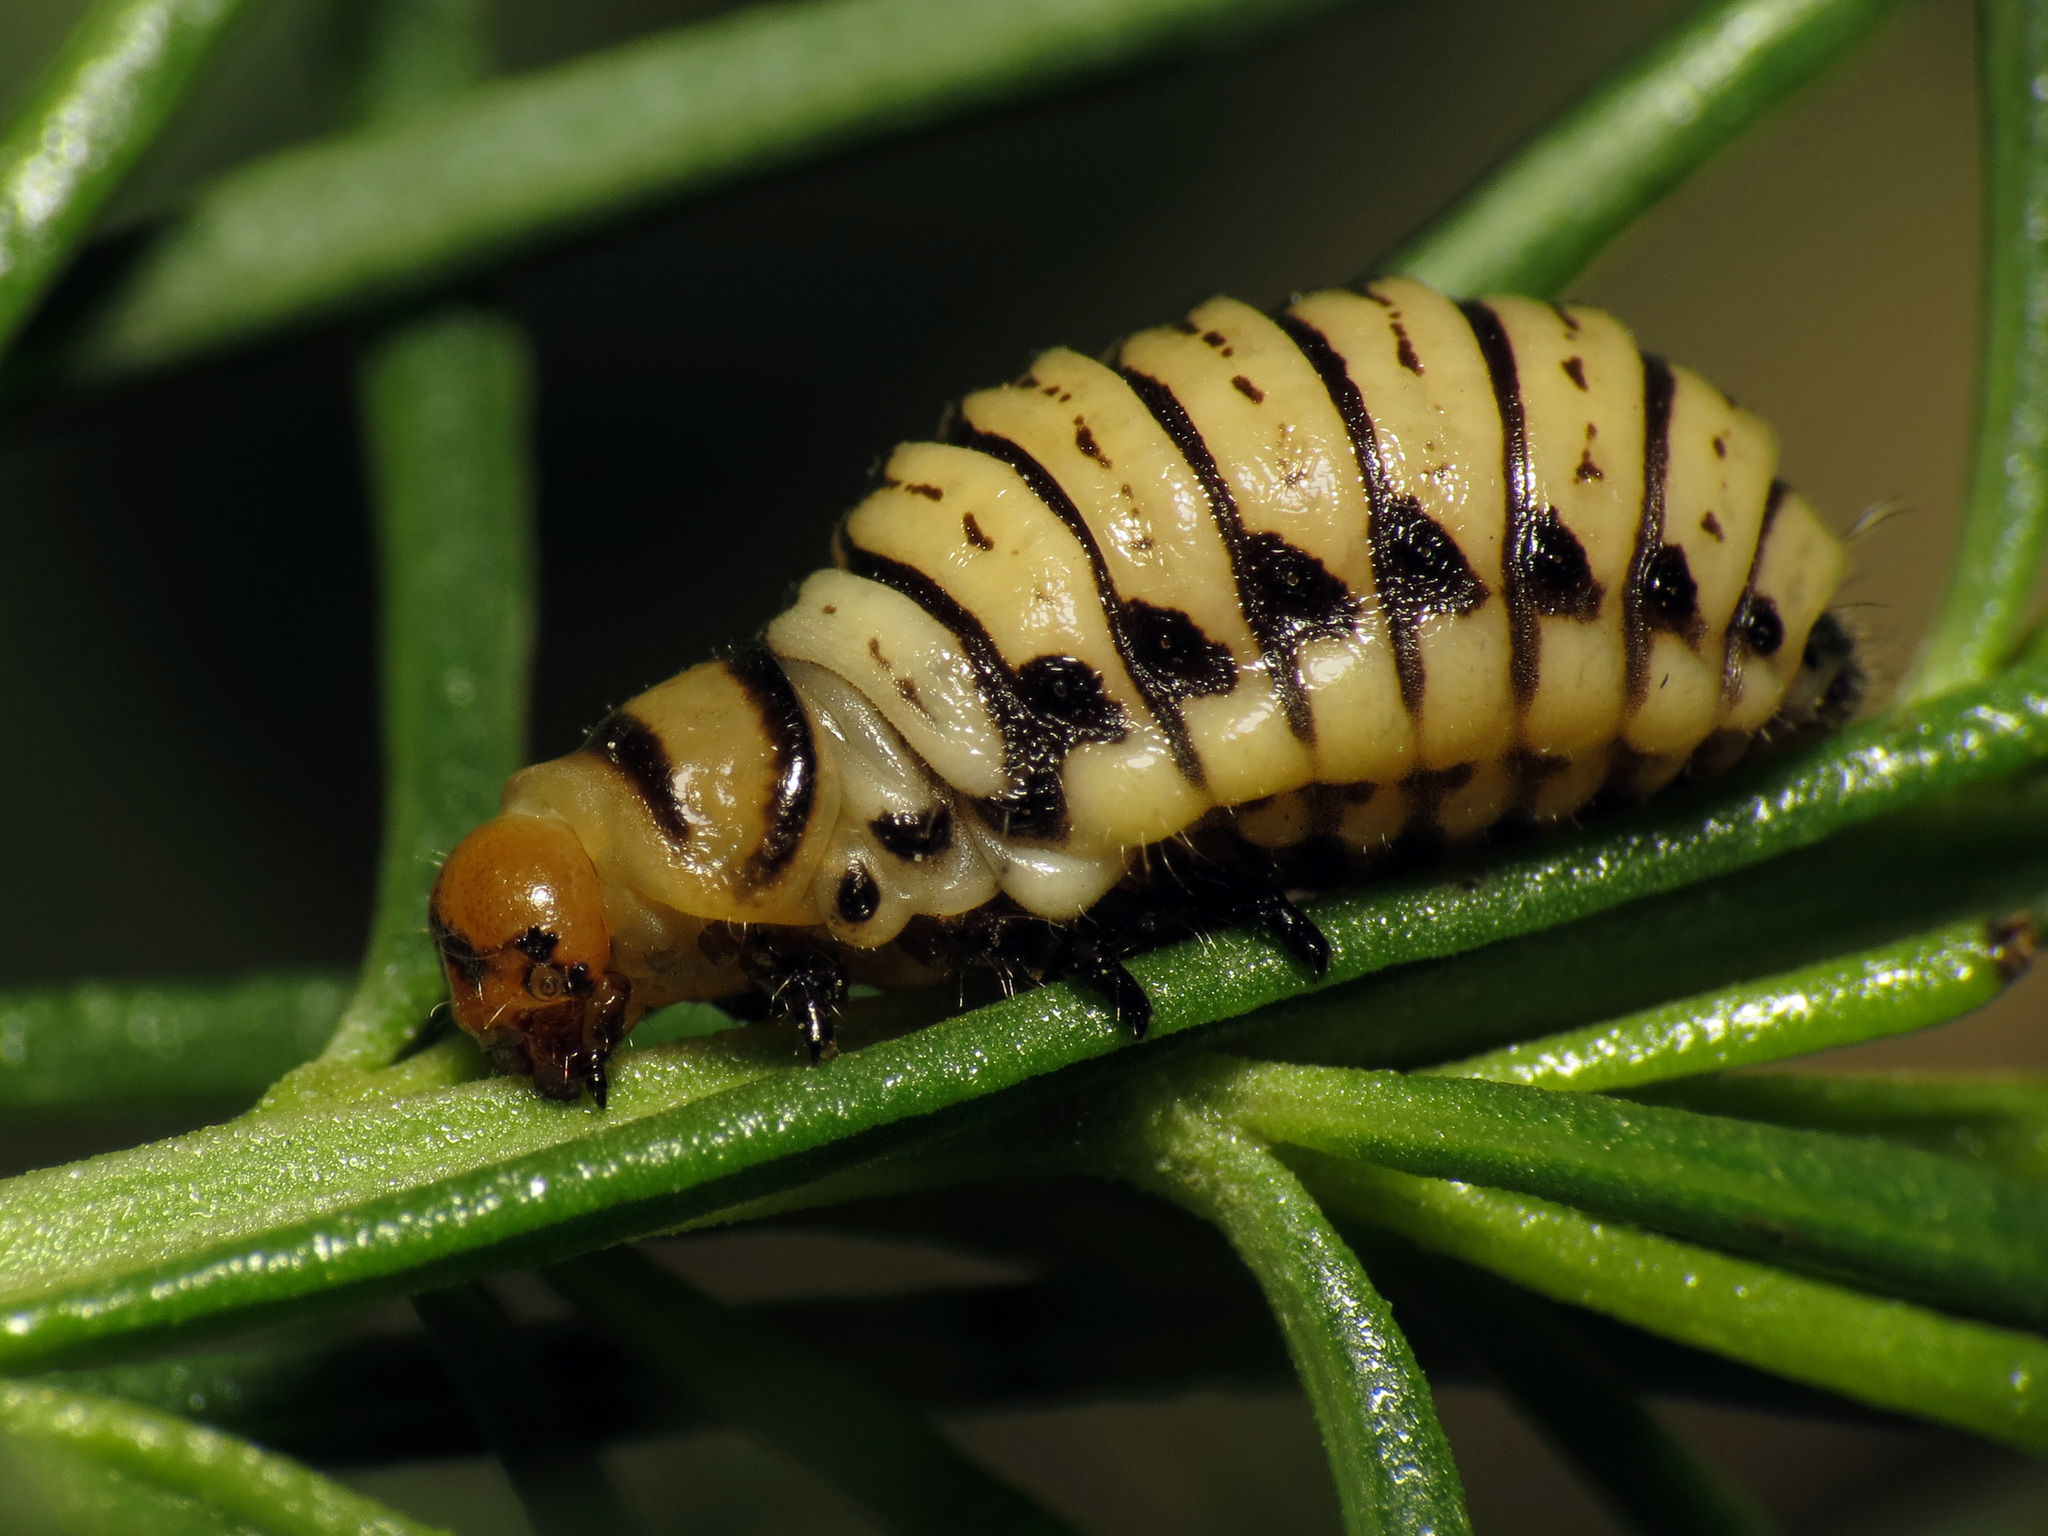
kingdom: Animalia
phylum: Arthropoda
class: Insecta
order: Coleoptera
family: Chrysomelidae
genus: Leptinotarsa
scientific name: Leptinotarsa lineolata
